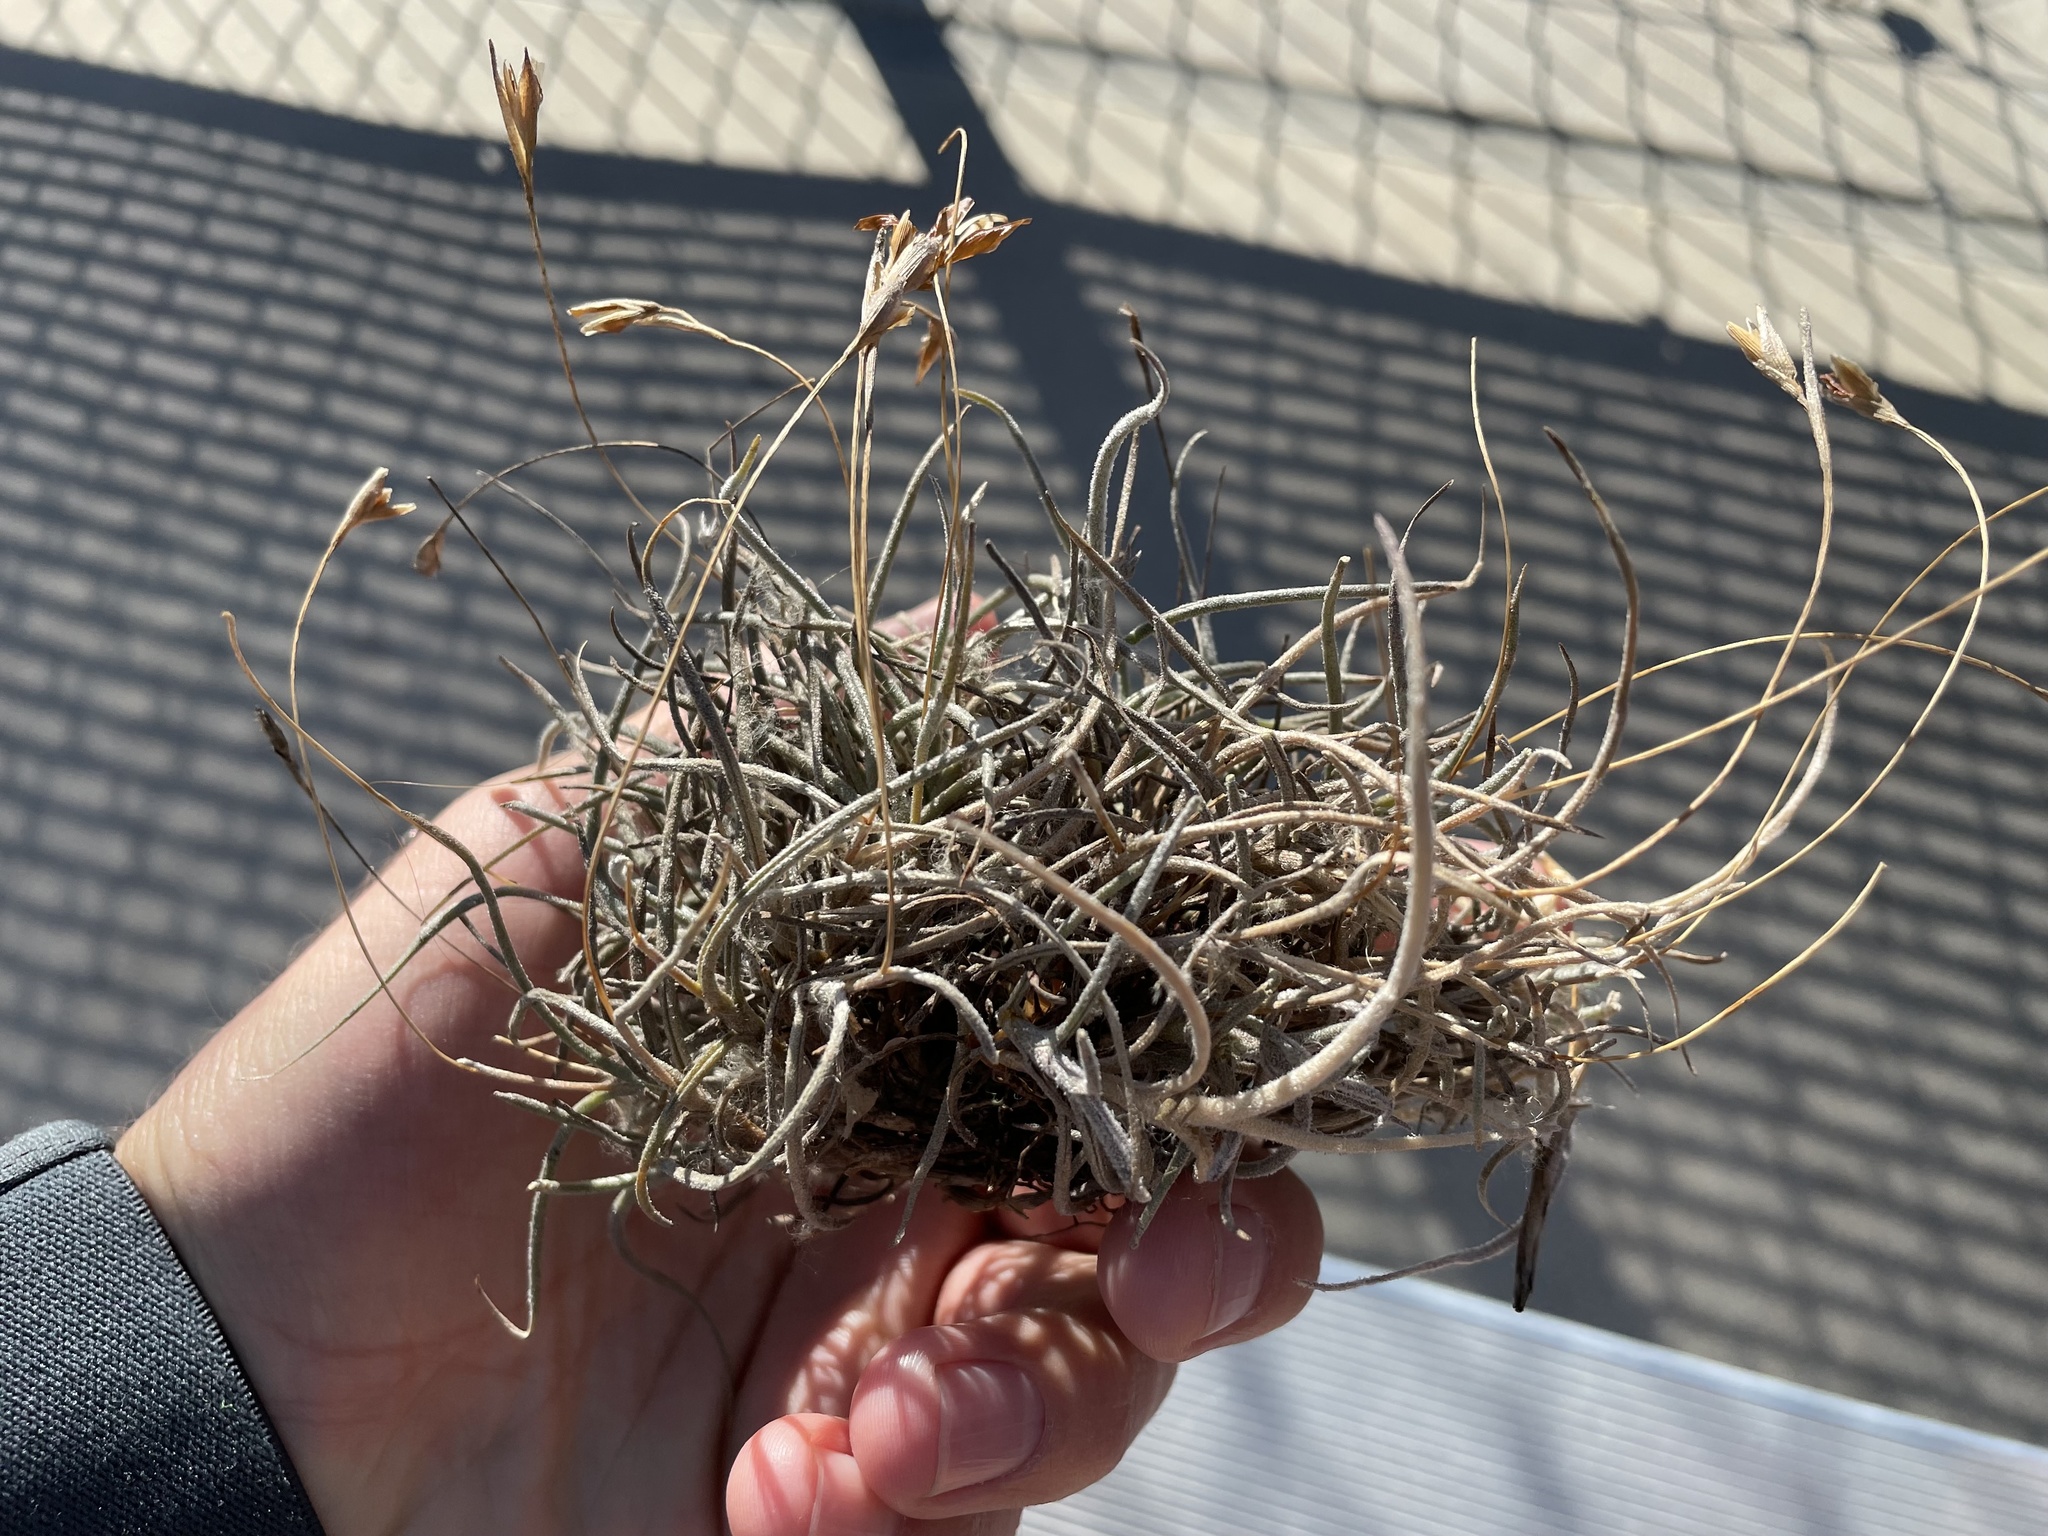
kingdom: Plantae
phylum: Tracheophyta
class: Liliopsida
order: Poales
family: Bromeliaceae
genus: Tillandsia
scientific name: Tillandsia recurvata
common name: Small ballmoss
